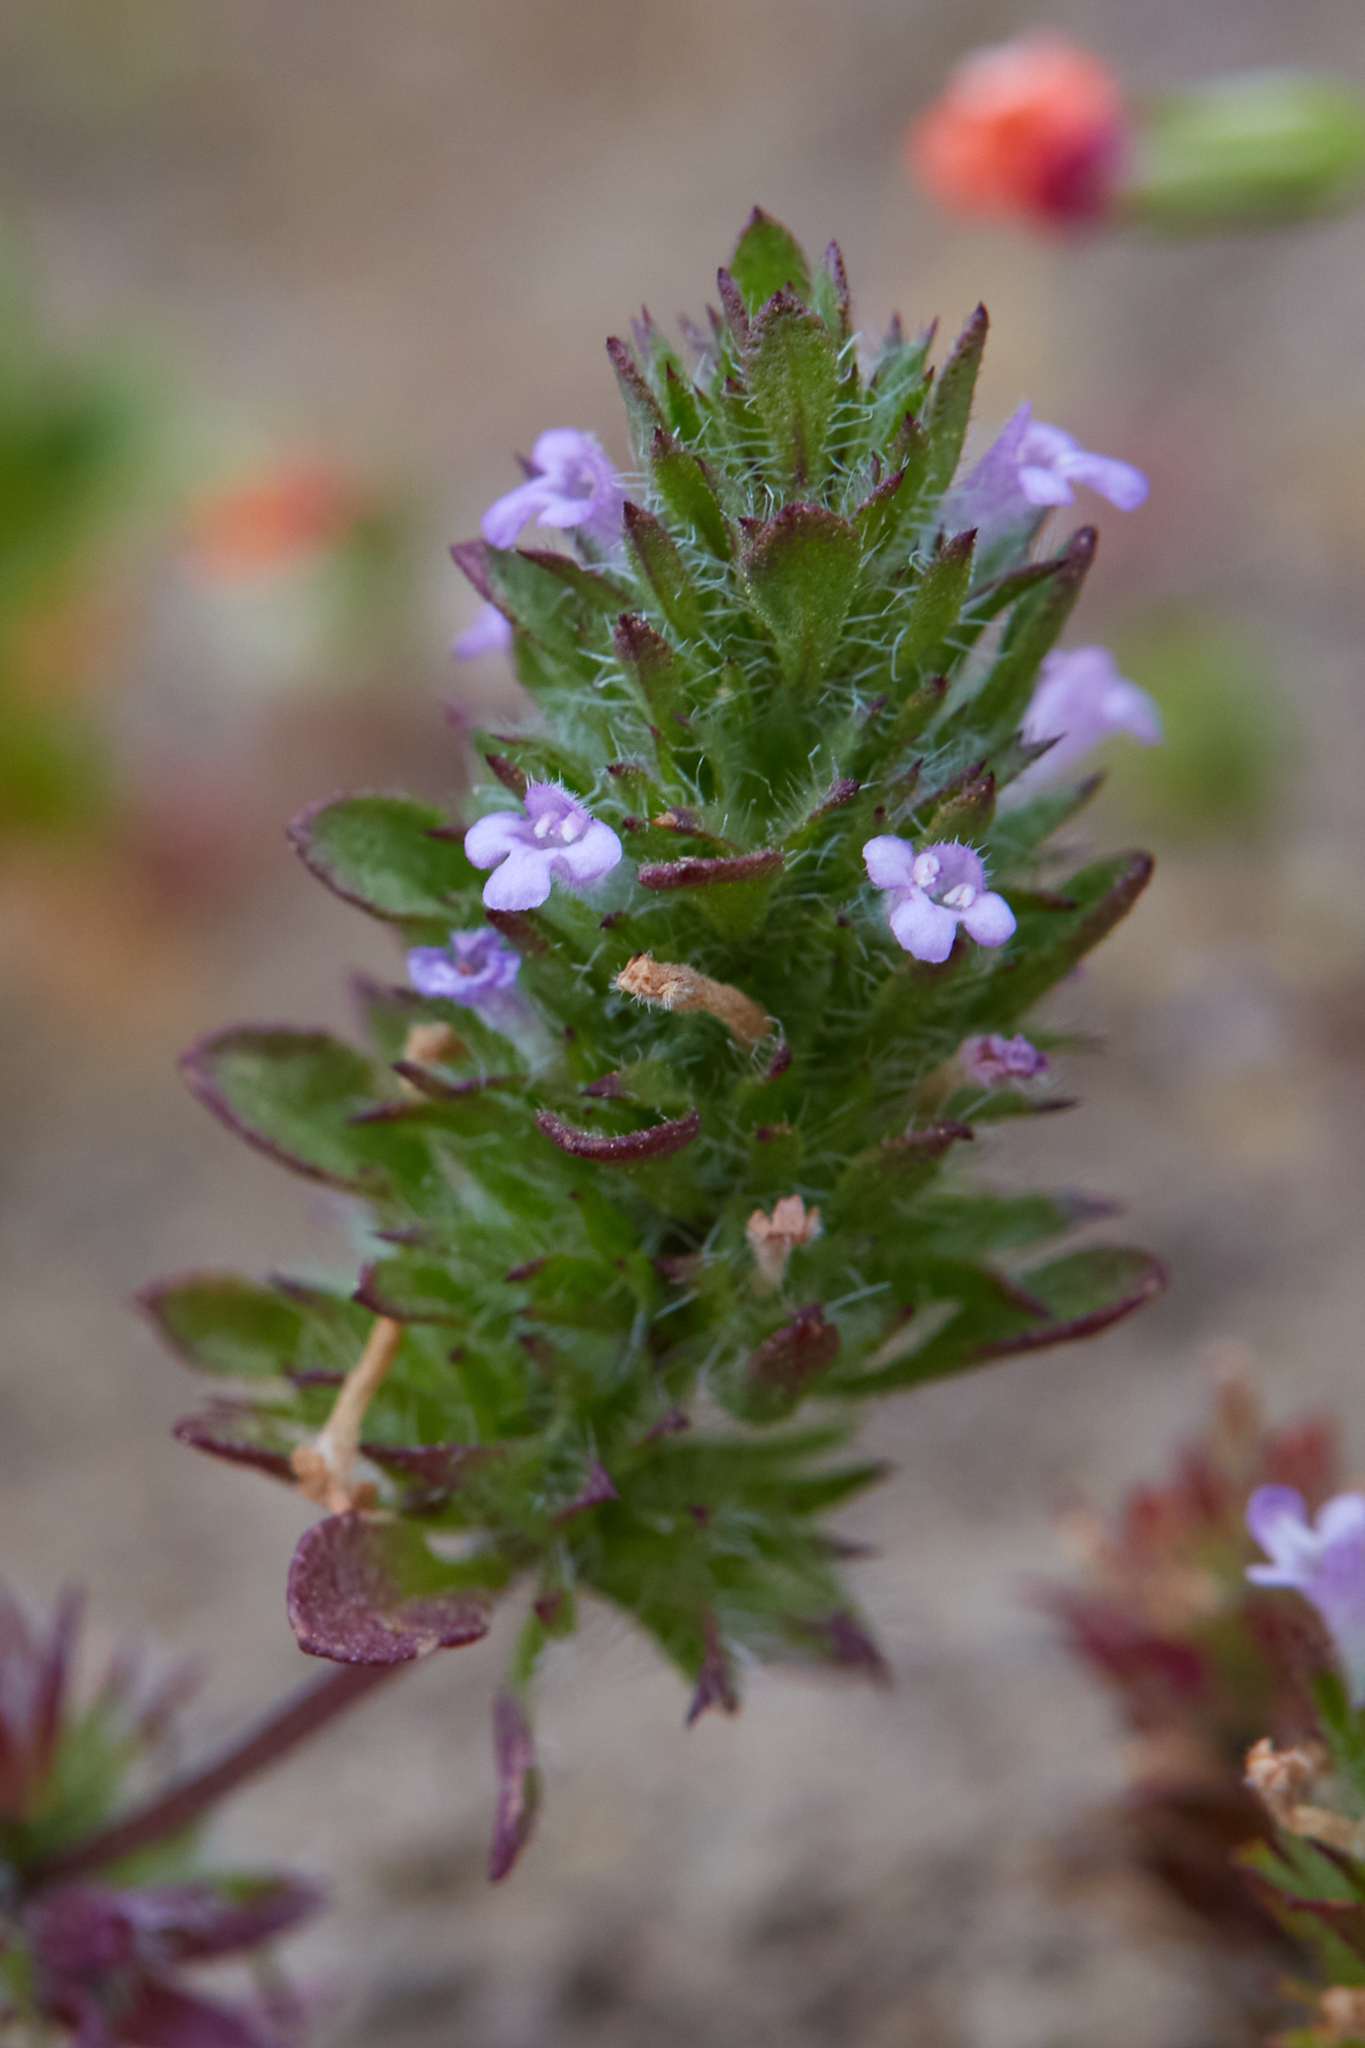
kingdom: Plantae
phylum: Tracheophyta
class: Magnoliopsida
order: Lamiales
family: Lamiaceae
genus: Pogogyne
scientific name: Pogogyne serpylloides
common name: Thymeleaf mesamint
